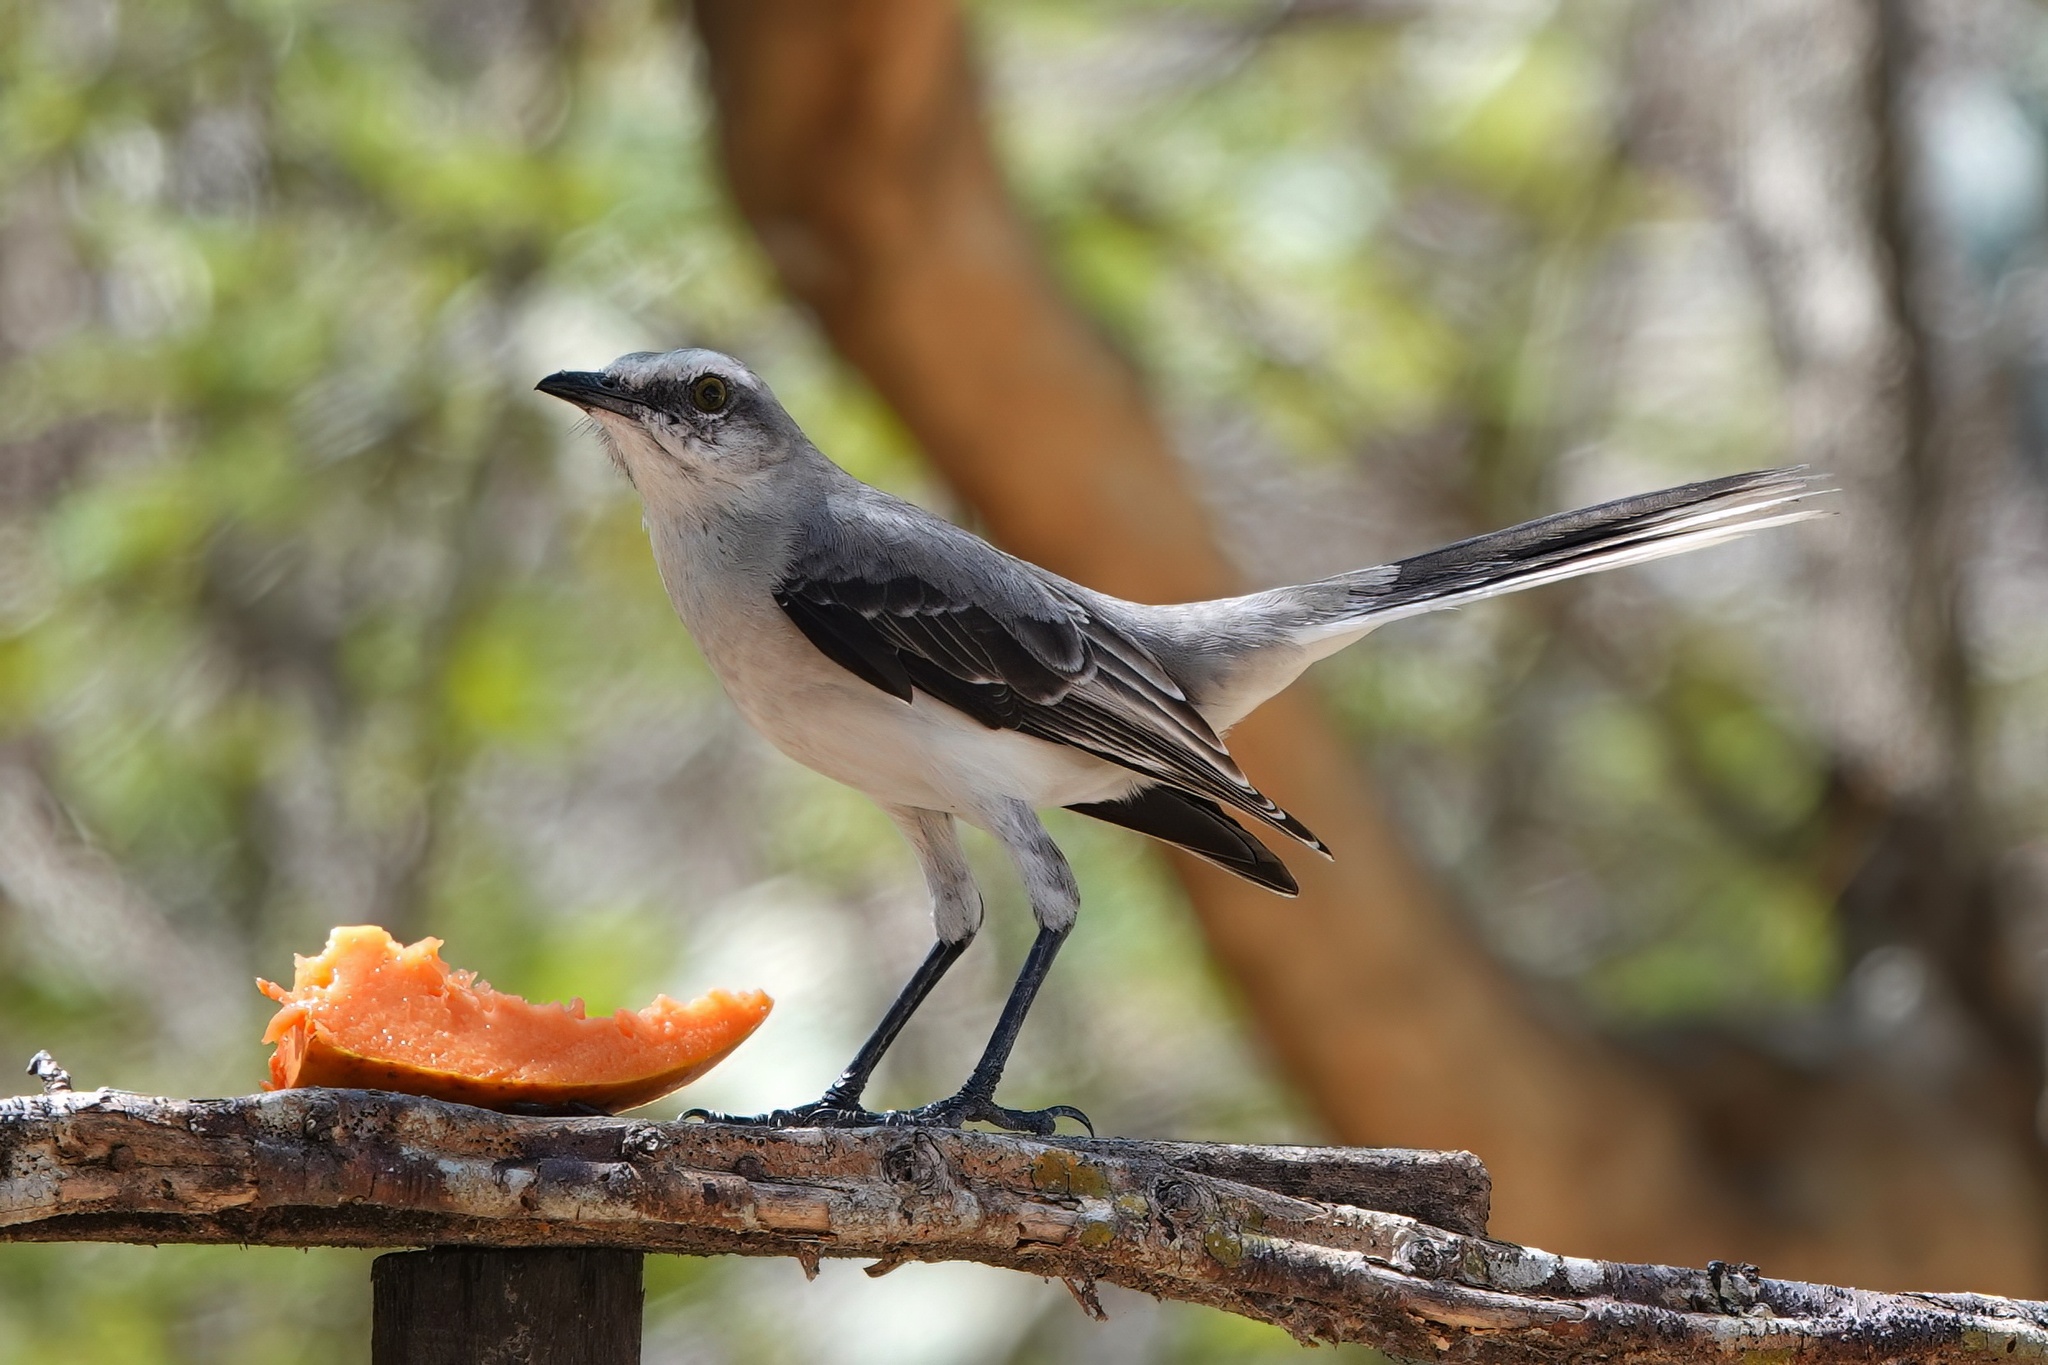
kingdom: Animalia
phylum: Chordata
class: Aves
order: Passeriformes
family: Mimidae
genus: Mimus
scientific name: Mimus gilvus
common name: Tropical mockingbird
